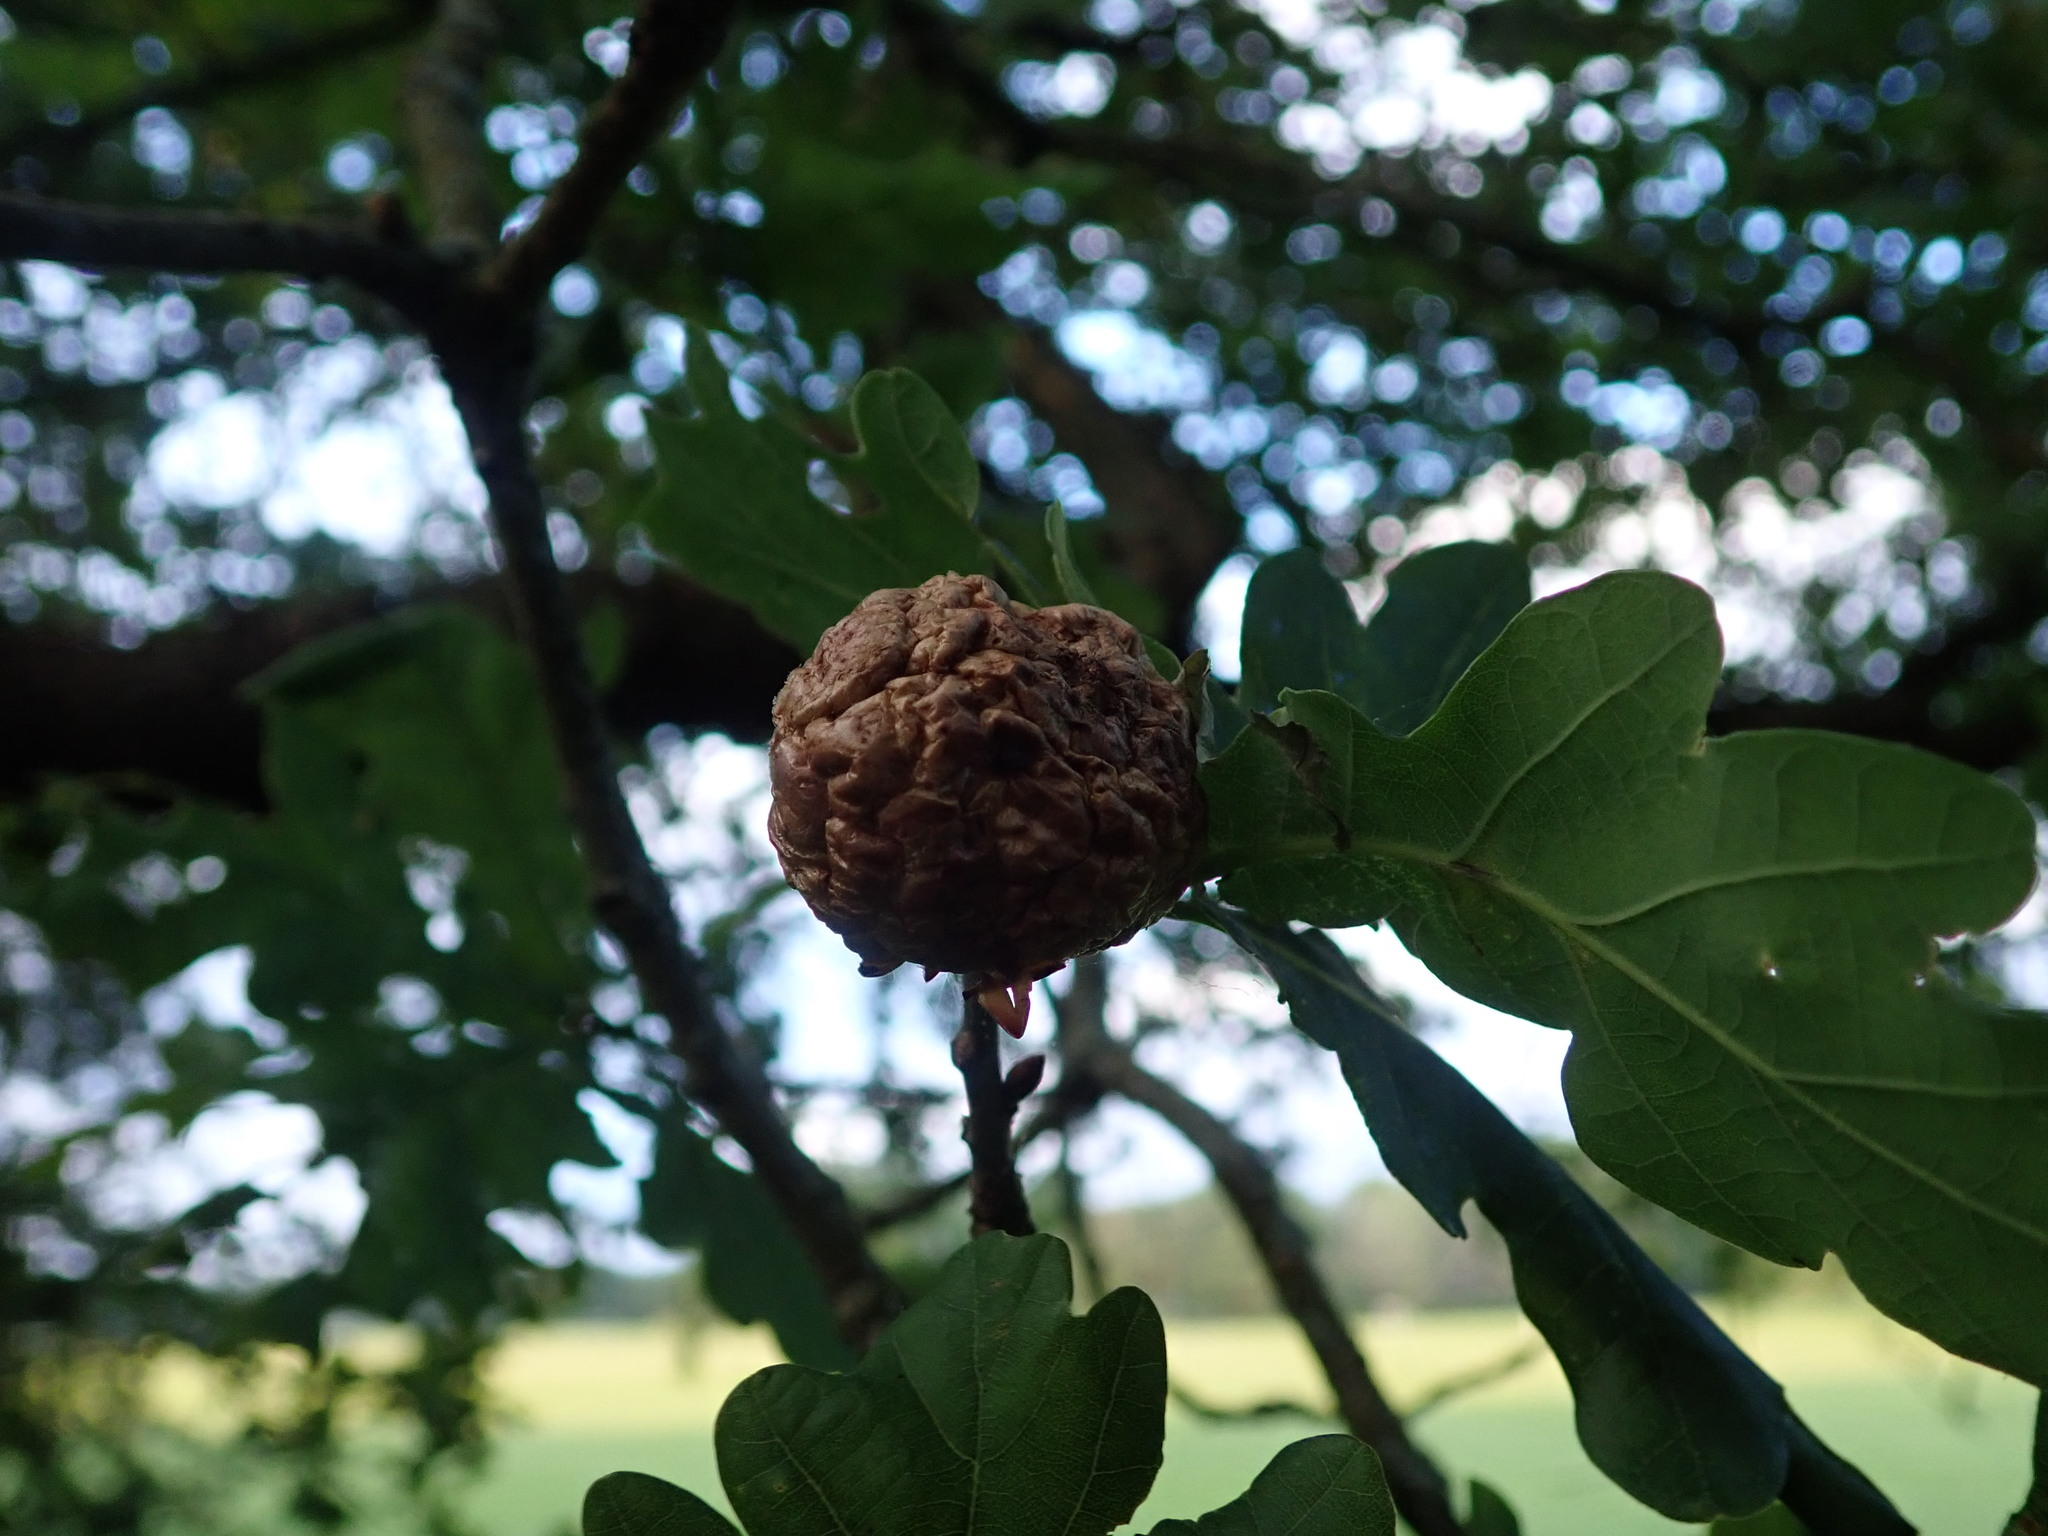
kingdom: Animalia
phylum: Arthropoda
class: Insecta
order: Hymenoptera
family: Cynipidae
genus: Biorhiza
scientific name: Biorhiza pallida
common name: Oak apple
